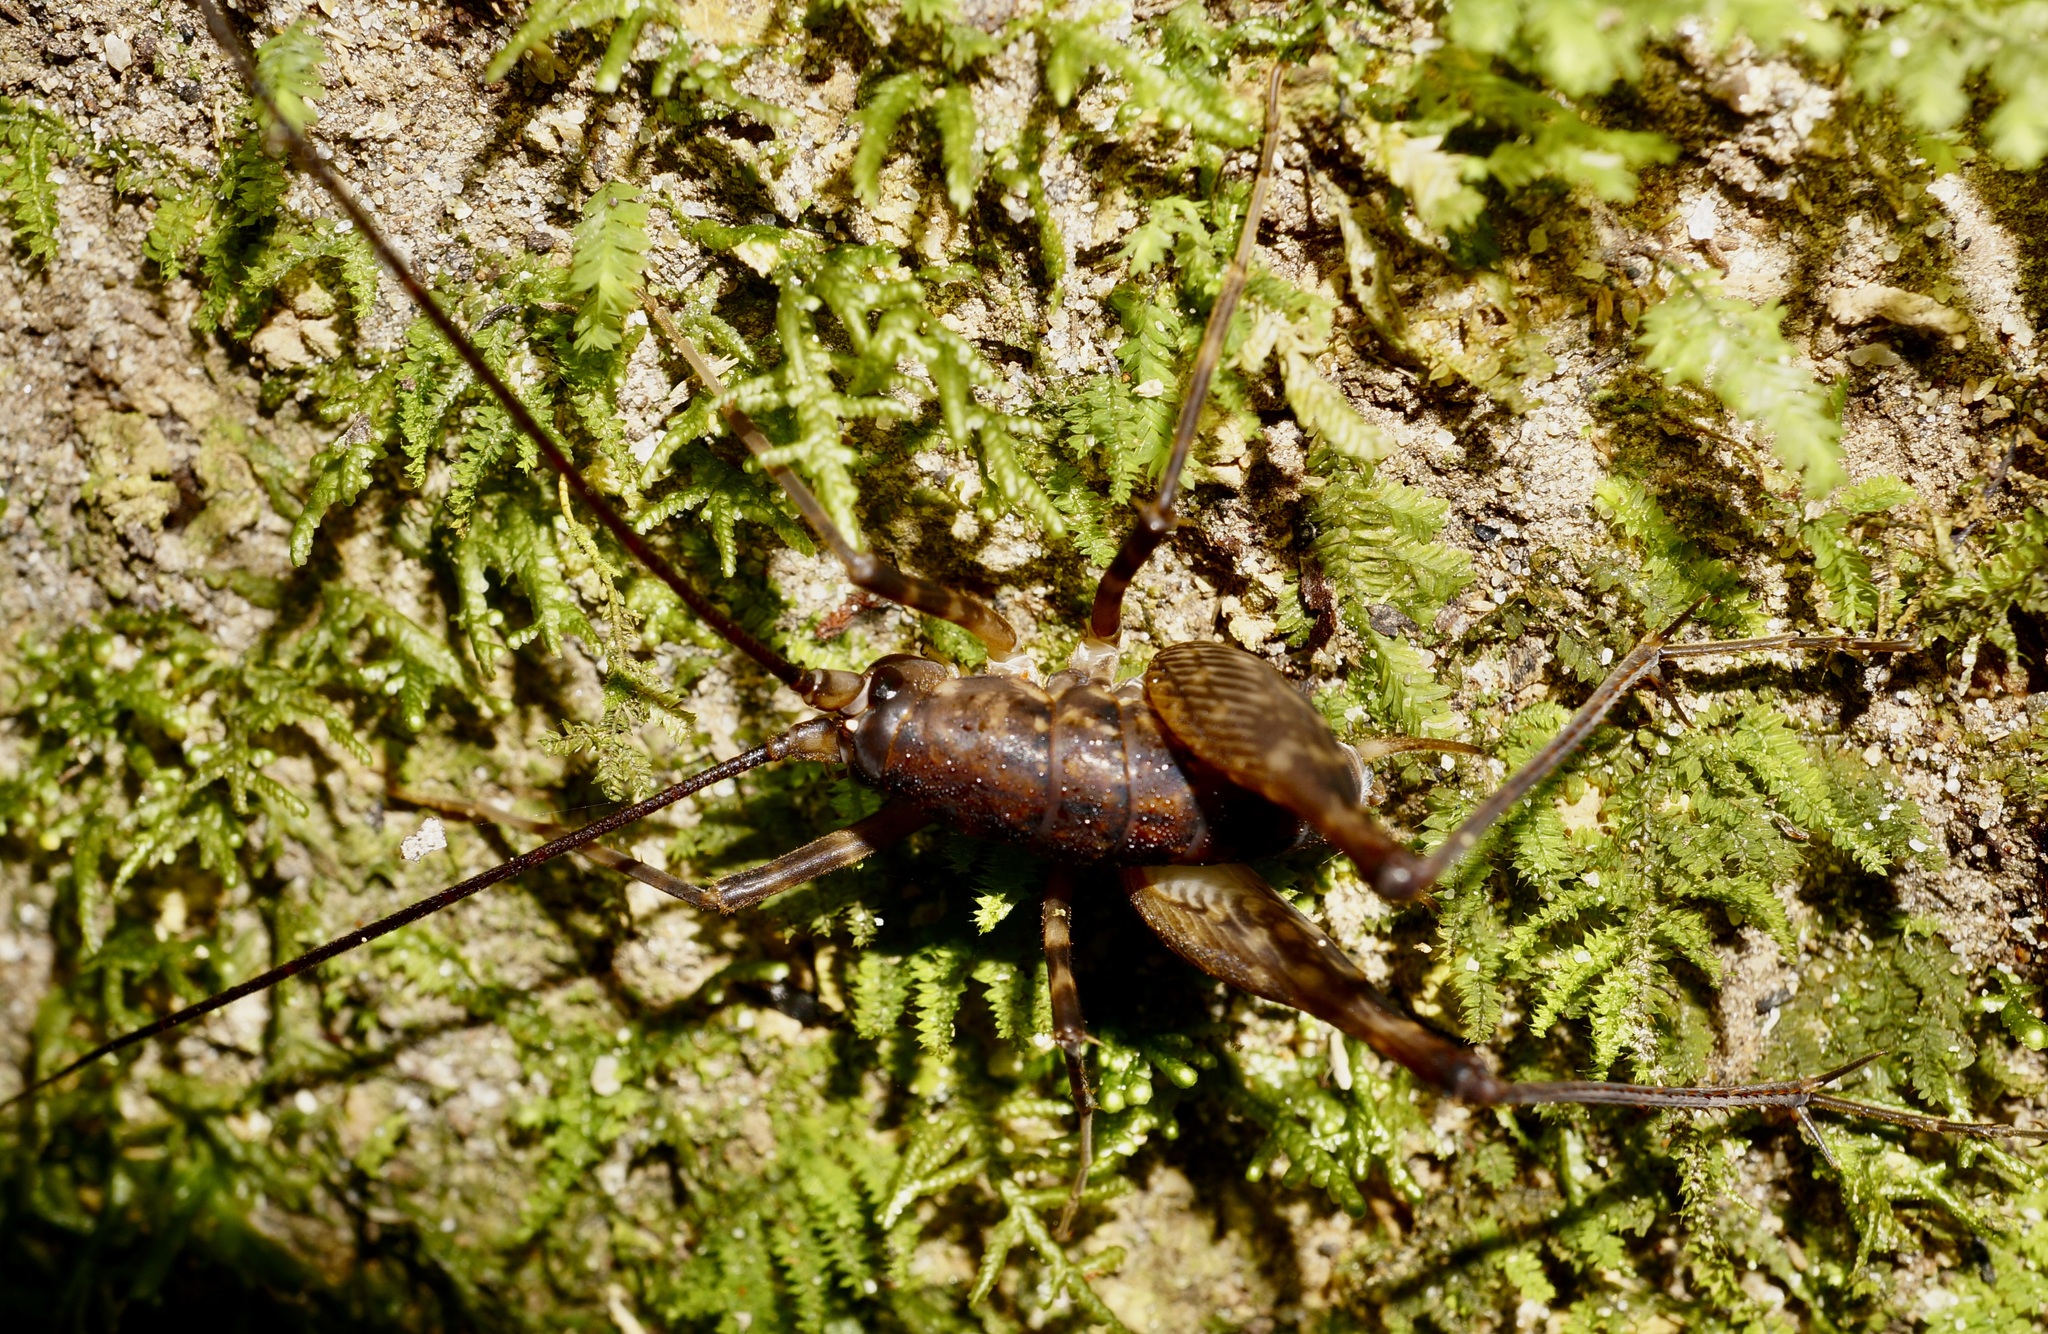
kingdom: Animalia
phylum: Arthropoda
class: Insecta
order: Orthoptera
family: Rhaphidophoridae
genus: Miotopus
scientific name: Miotopus diversus
